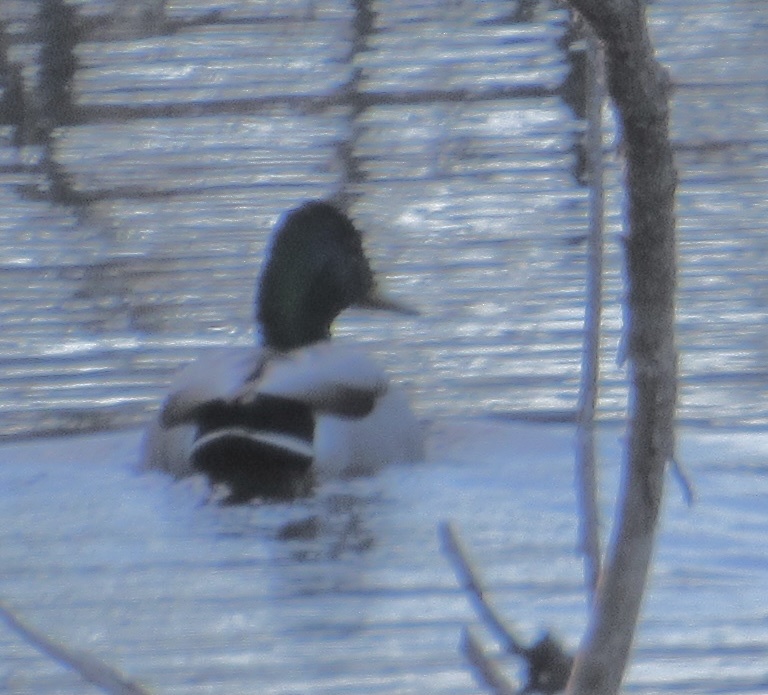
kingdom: Animalia
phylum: Chordata
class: Aves
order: Anseriformes
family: Anatidae
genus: Anas
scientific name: Anas platyrhynchos
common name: Mallard
